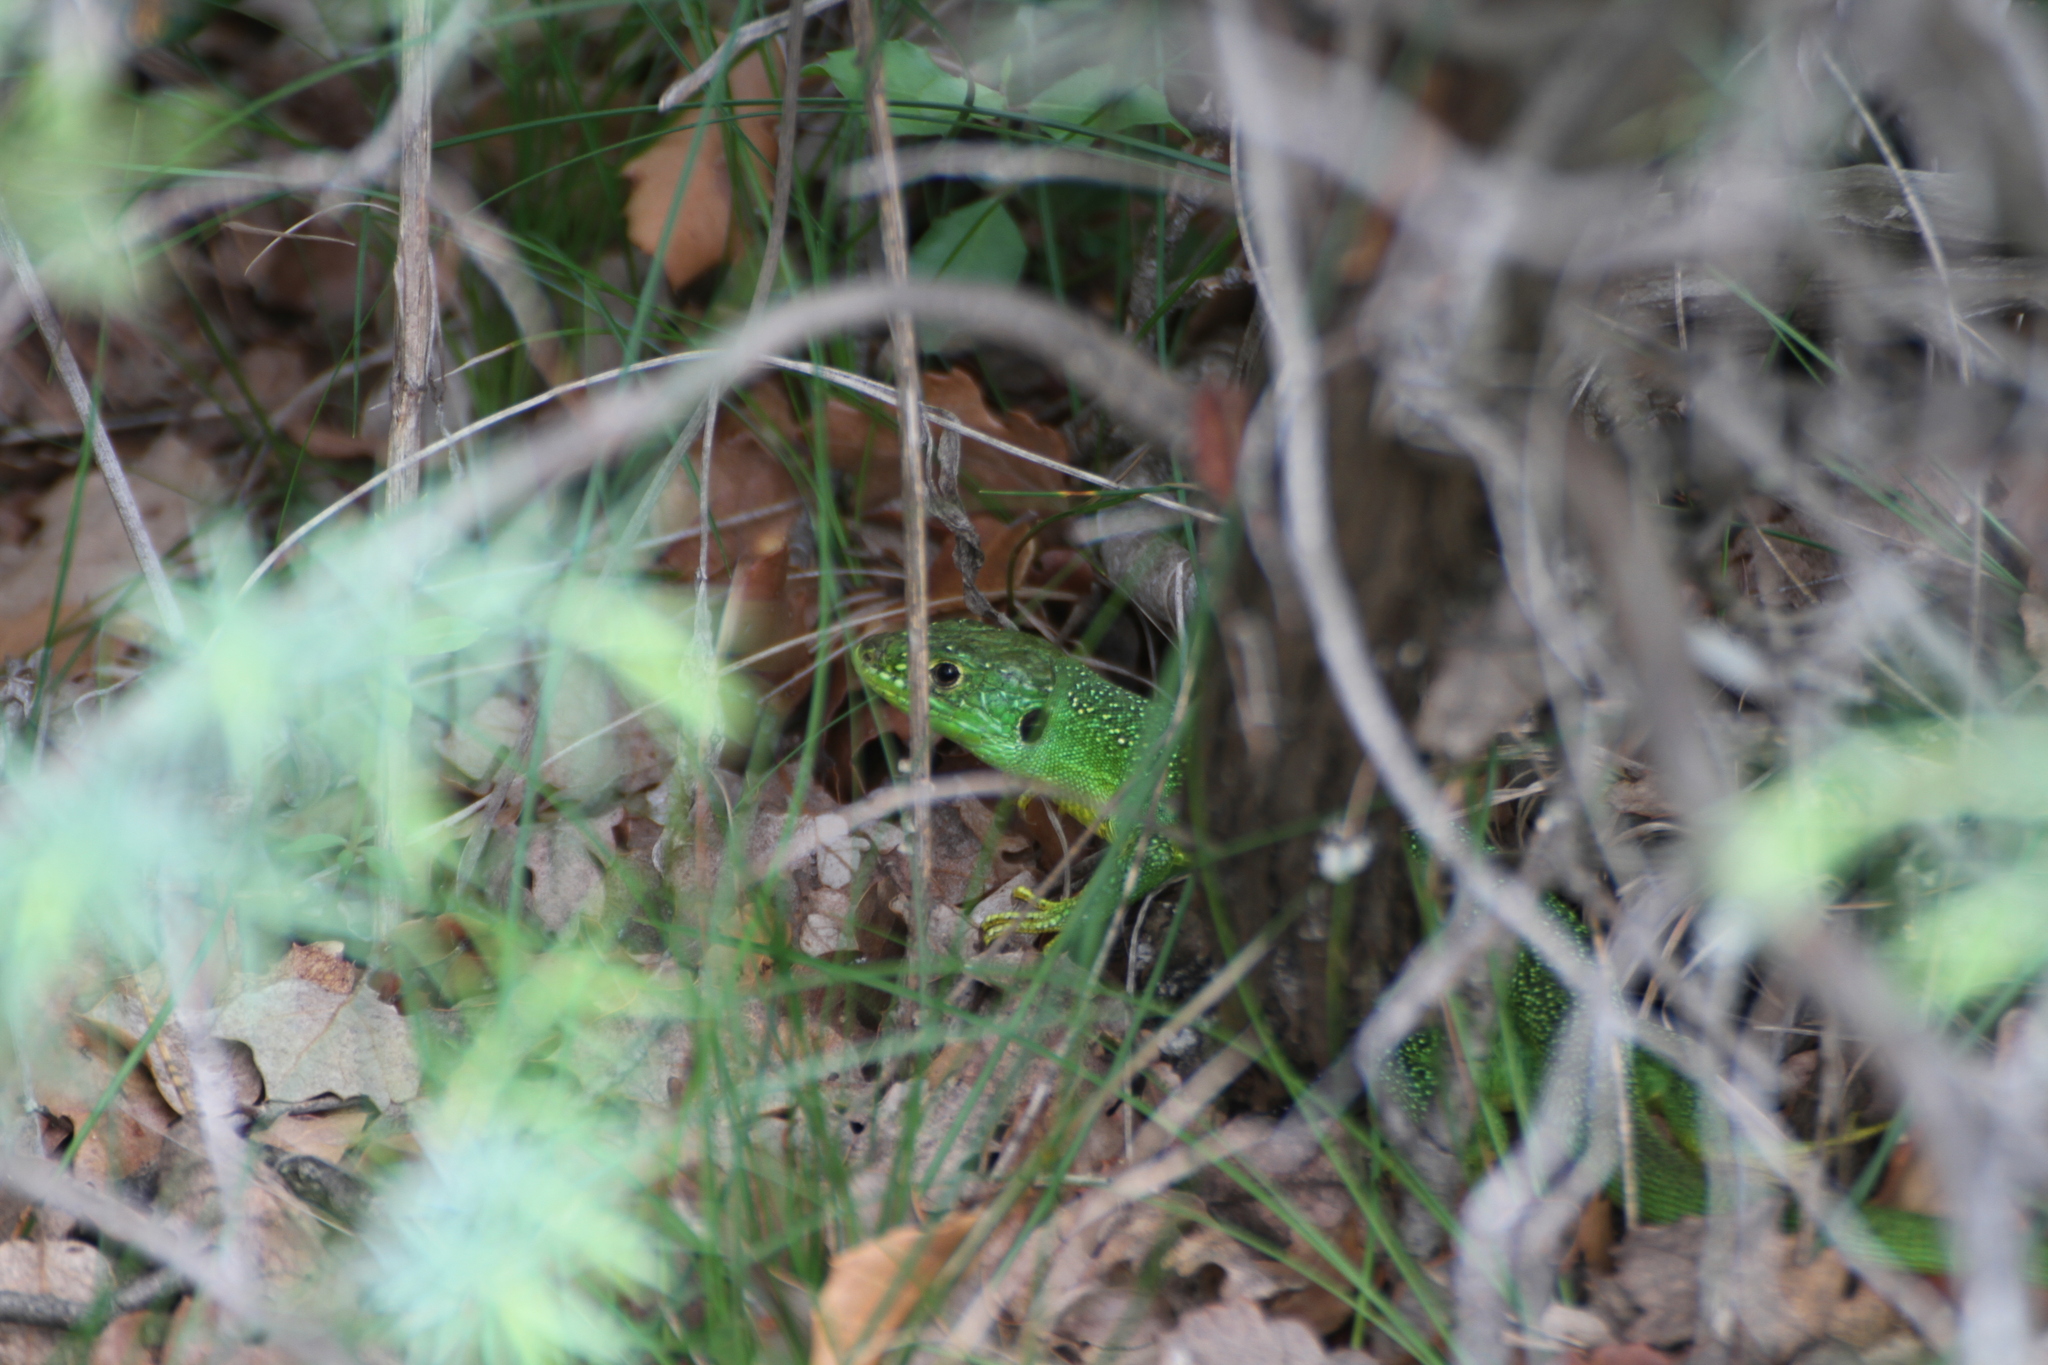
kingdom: Animalia
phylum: Chordata
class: Squamata
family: Lacertidae
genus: Lacerta
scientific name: Lacerta bilineata
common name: Western green lizard
